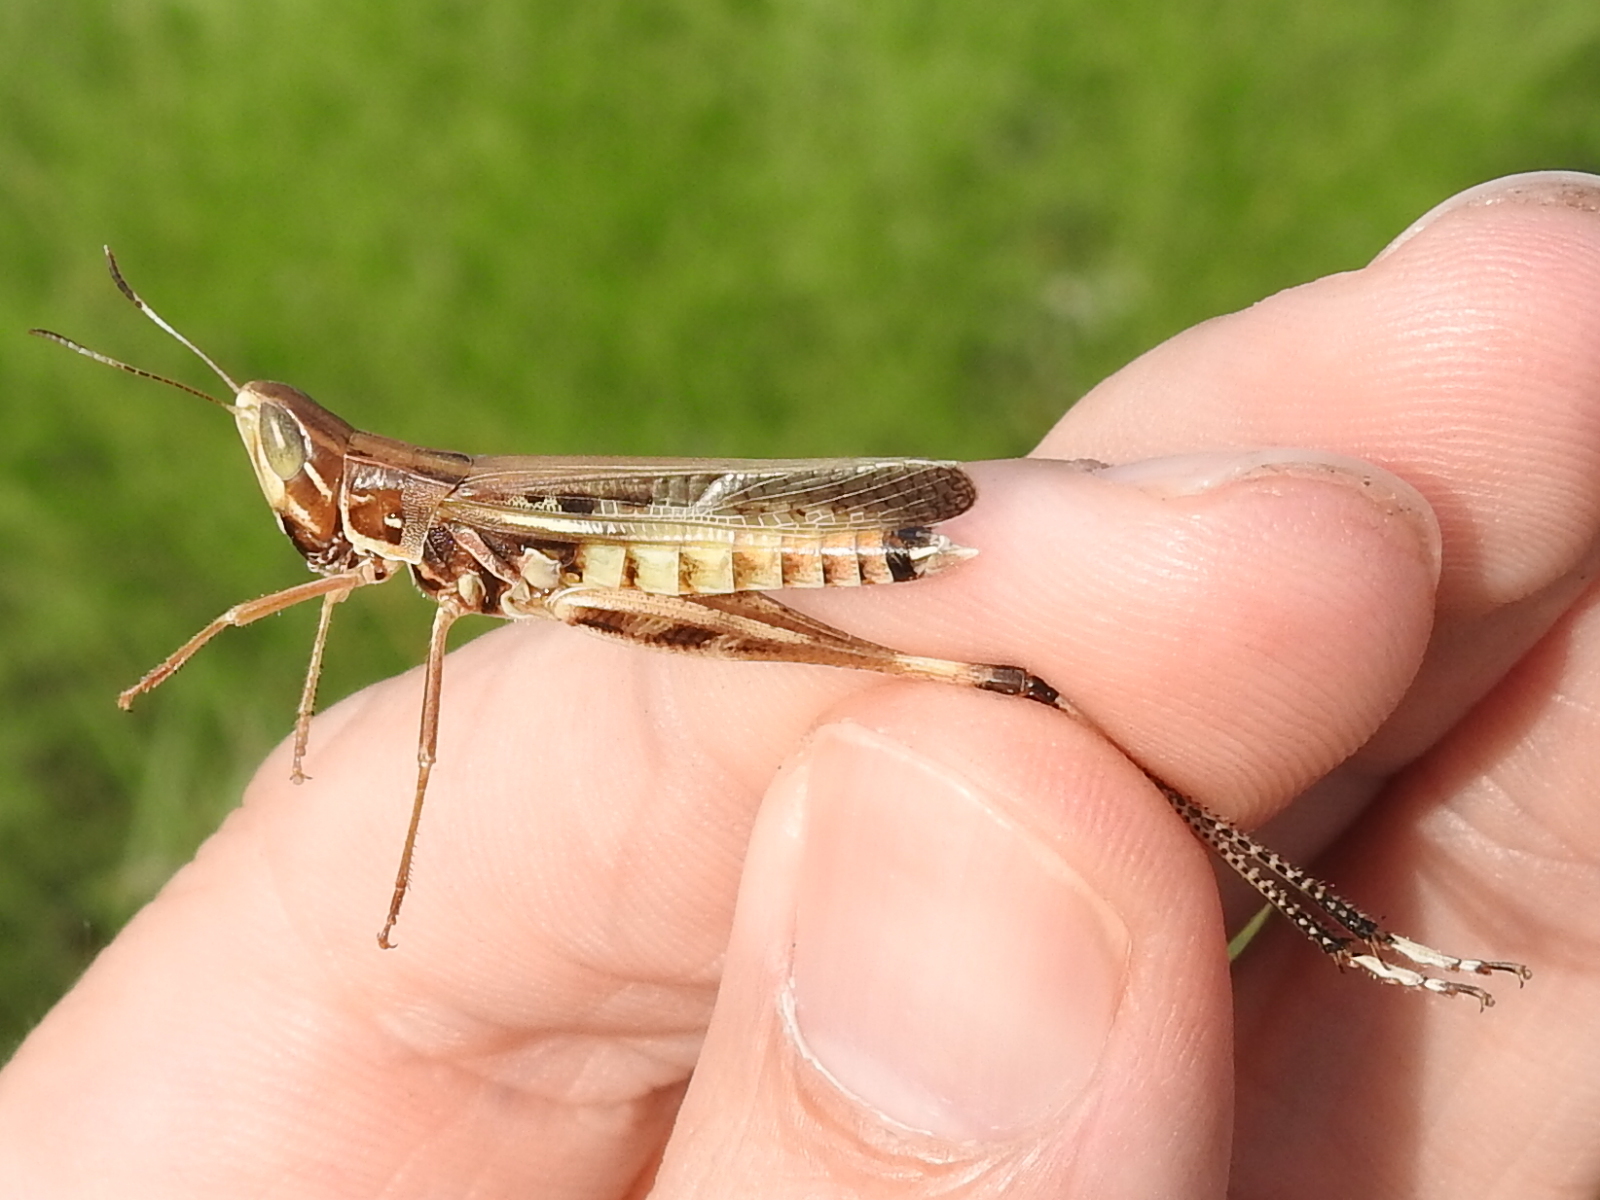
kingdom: Animalia
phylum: Arthropoda
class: Insecta
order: Orthoptera
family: Acrididae
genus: Syrbula
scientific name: Syrbula admirabilis
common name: Handsome grasshopper
